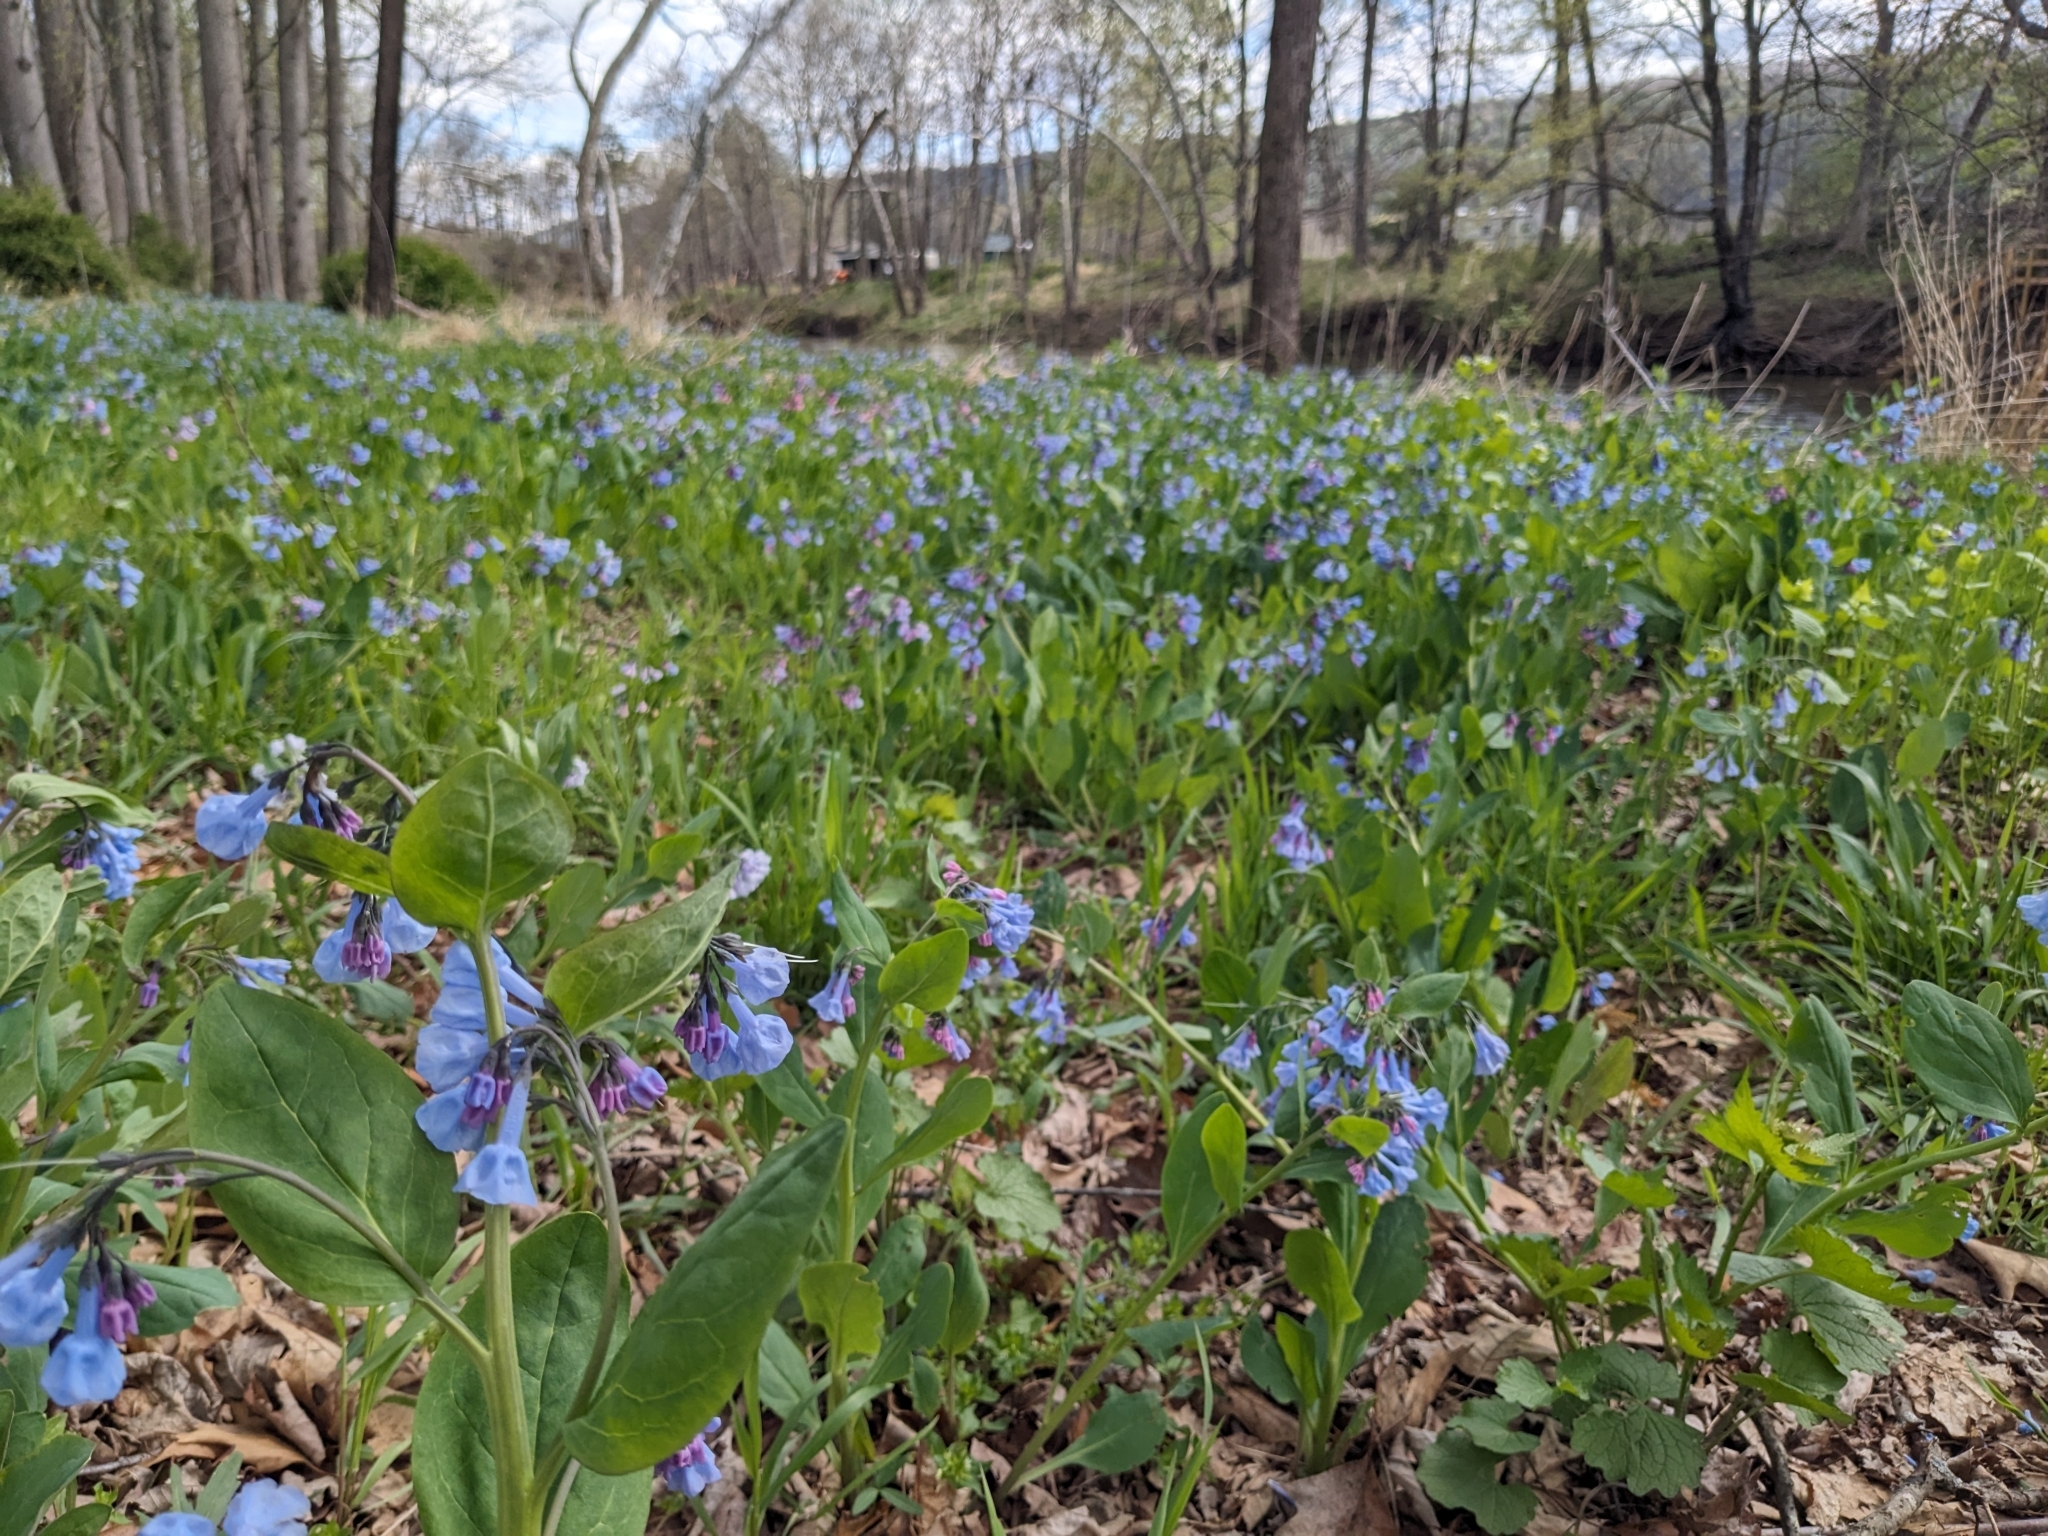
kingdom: Plantae
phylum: Tracheophyta
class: Magnoliopsida
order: Boraginales
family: Boraginaceae
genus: Mertensia
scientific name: Mertensia virginica
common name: Virginia bluebells
